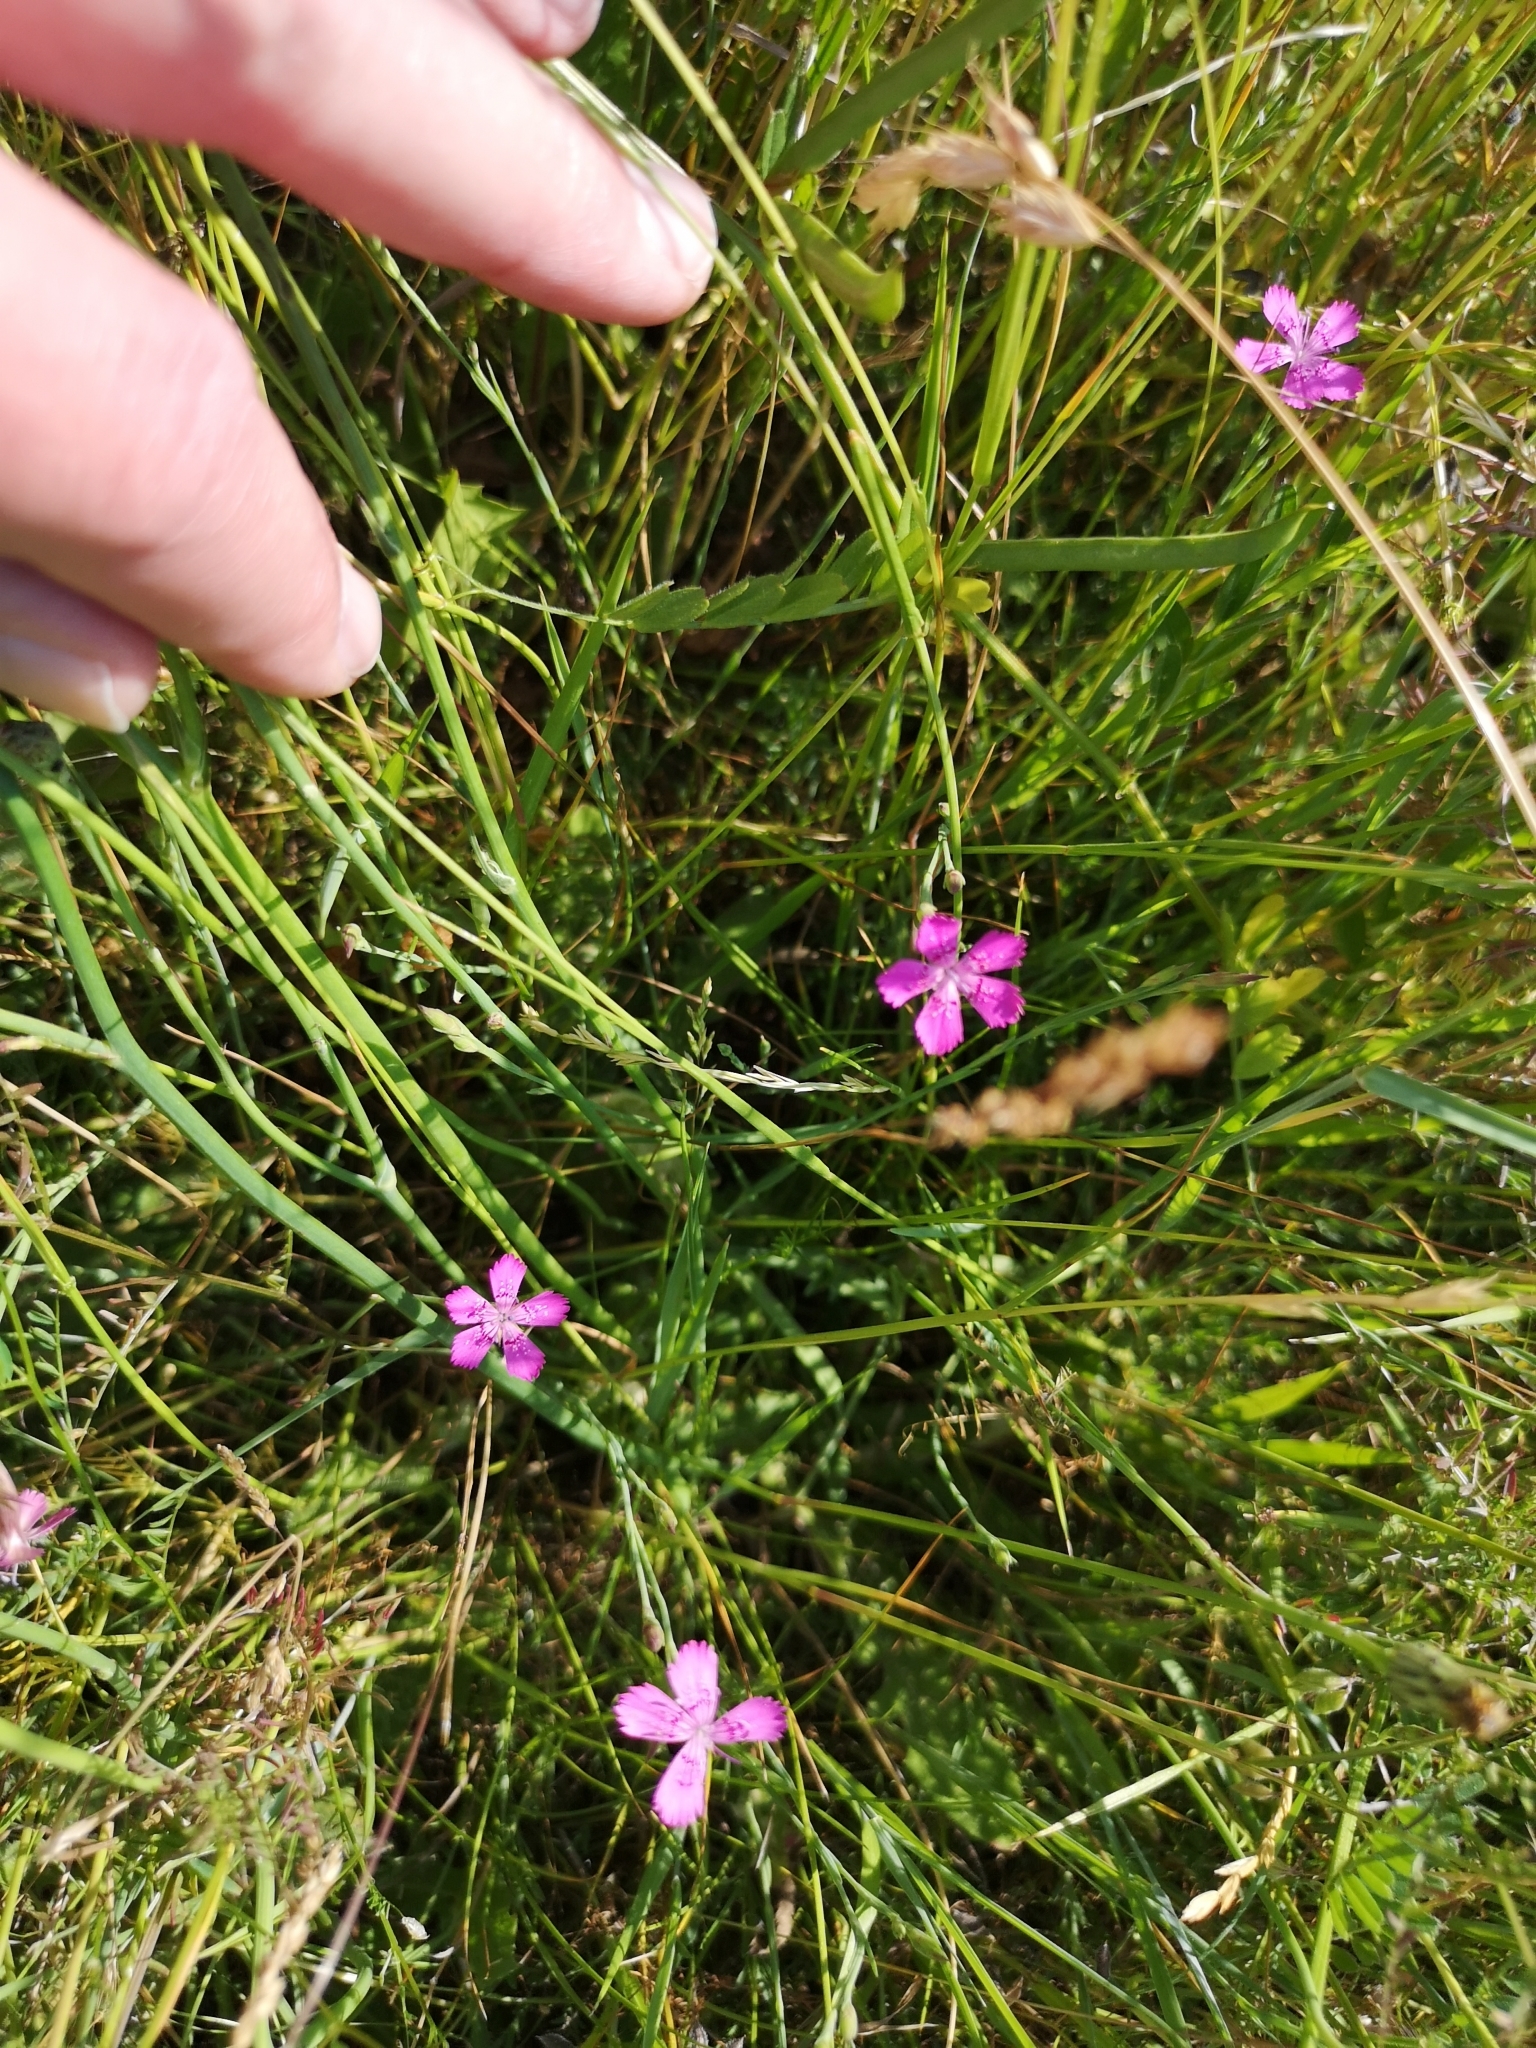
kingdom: Plantae
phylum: Tracheophyta
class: Magnoliopsida
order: Caryophyllales
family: Caryophyllaceae
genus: Dianthus
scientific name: Dianthus deltoides
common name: Maiden pink
